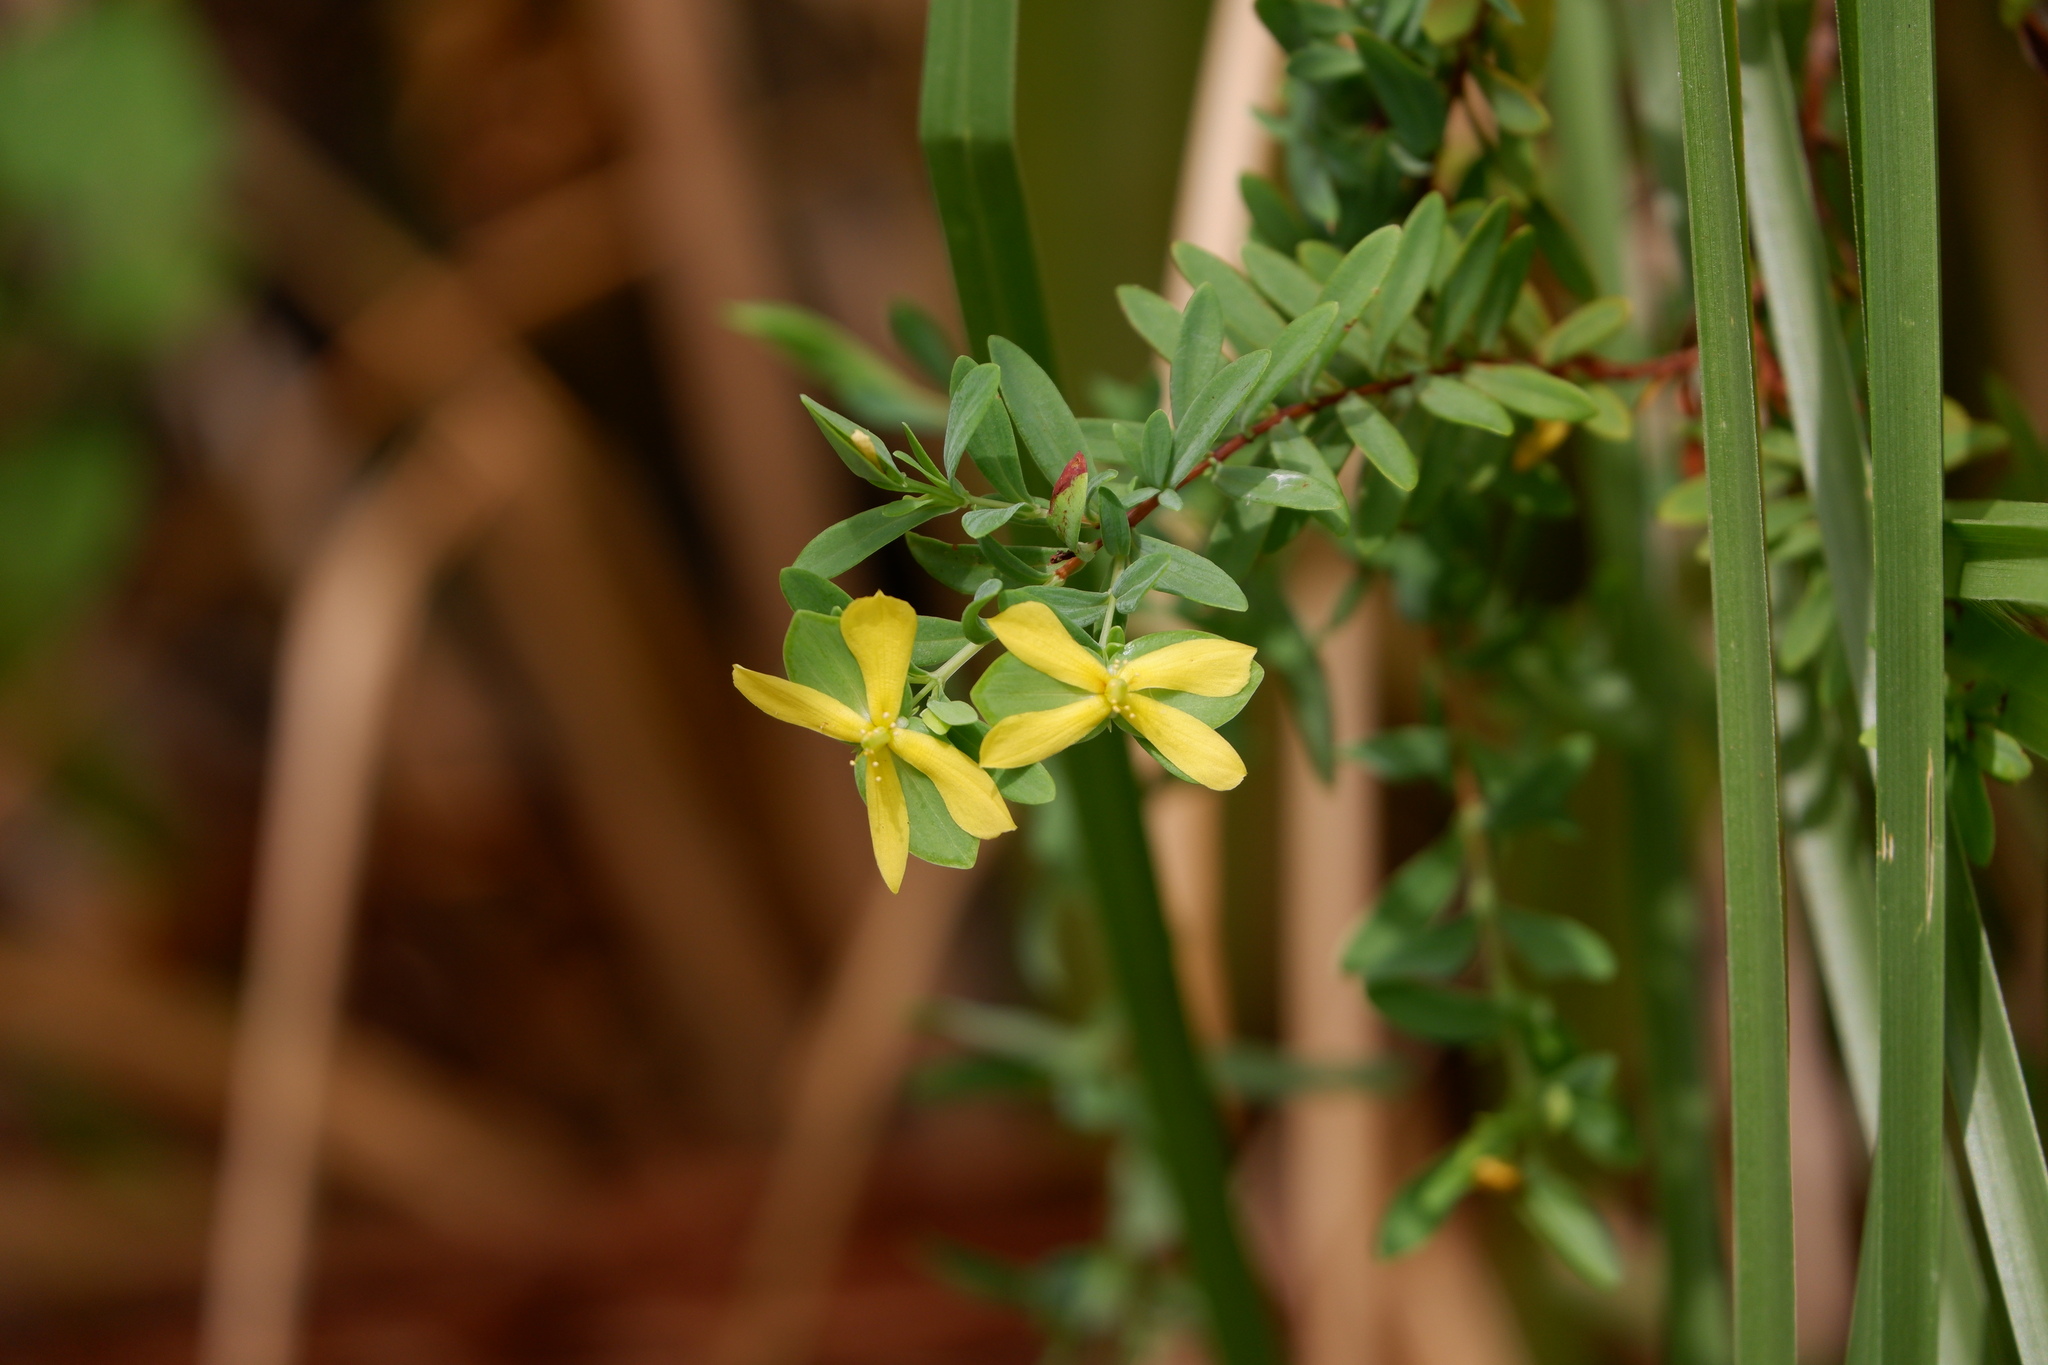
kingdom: Plantae
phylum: Tracheophyta
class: Magnoliopsida
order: Malpighiales
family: Hypericaceae
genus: Hypericum
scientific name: Hypericum hypericoides
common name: St. andrew's cross
